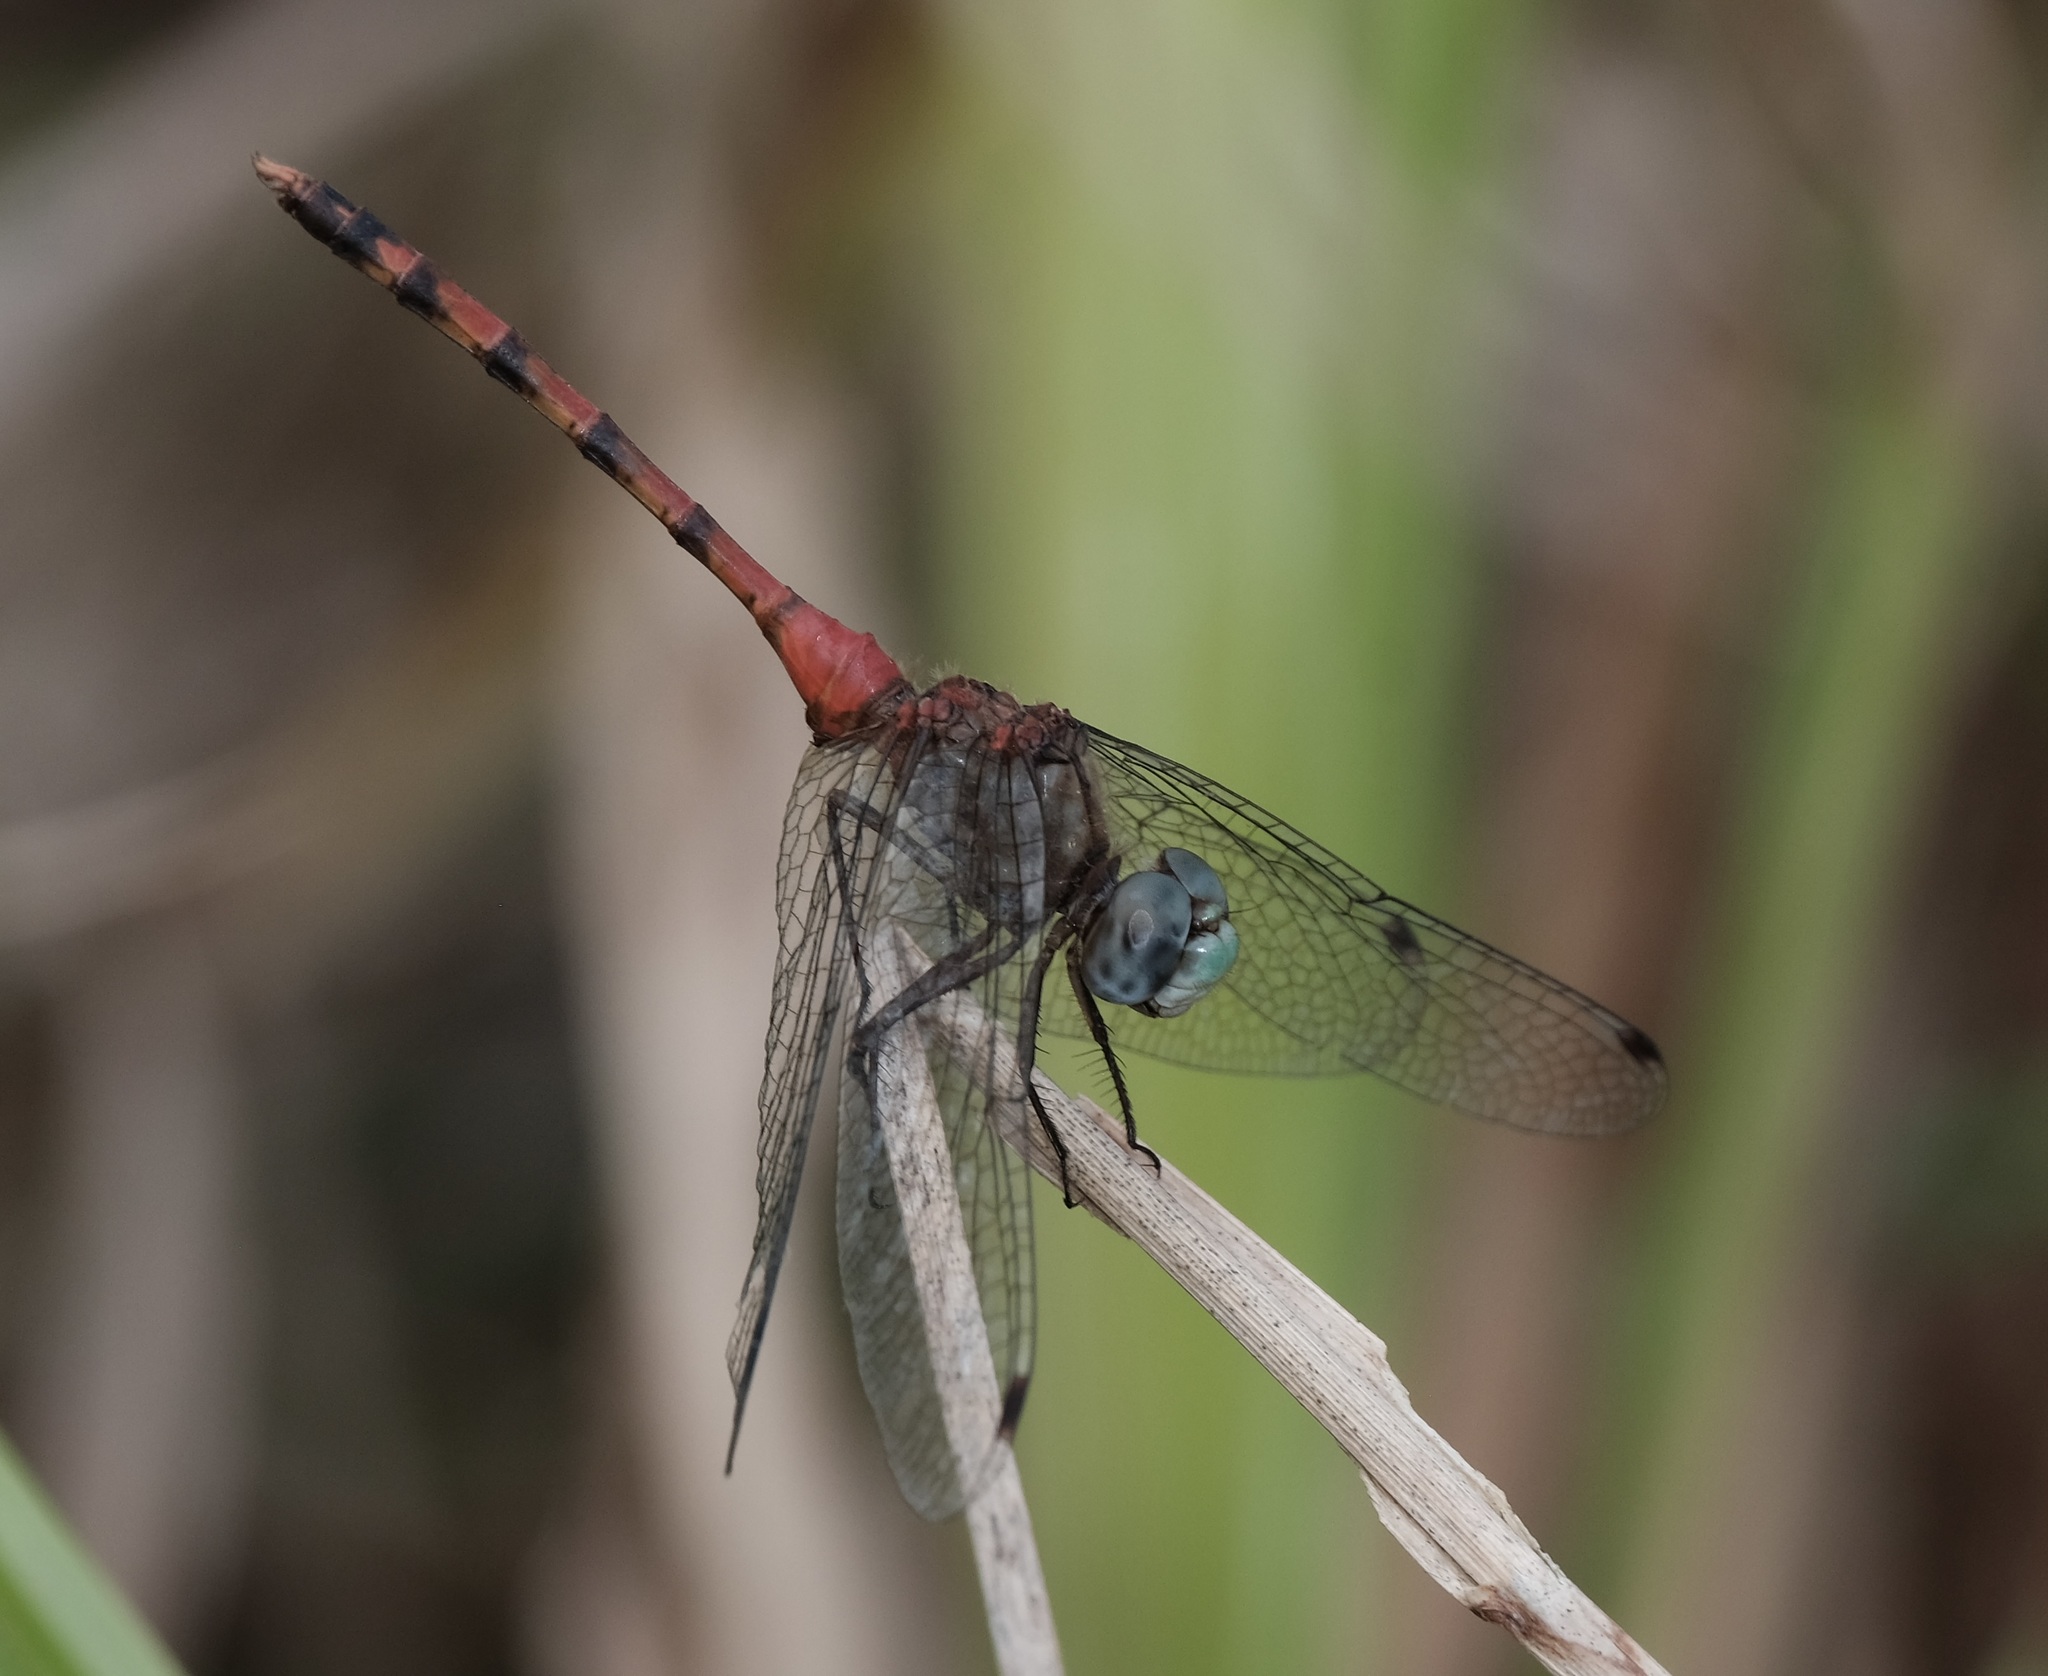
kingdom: Animalia
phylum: Arthropoda
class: Insecta
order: Odonata
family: Libellulidae
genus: Sympetrum
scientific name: Sympetrum ambiguum
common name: Blue-faced meadowhawk
